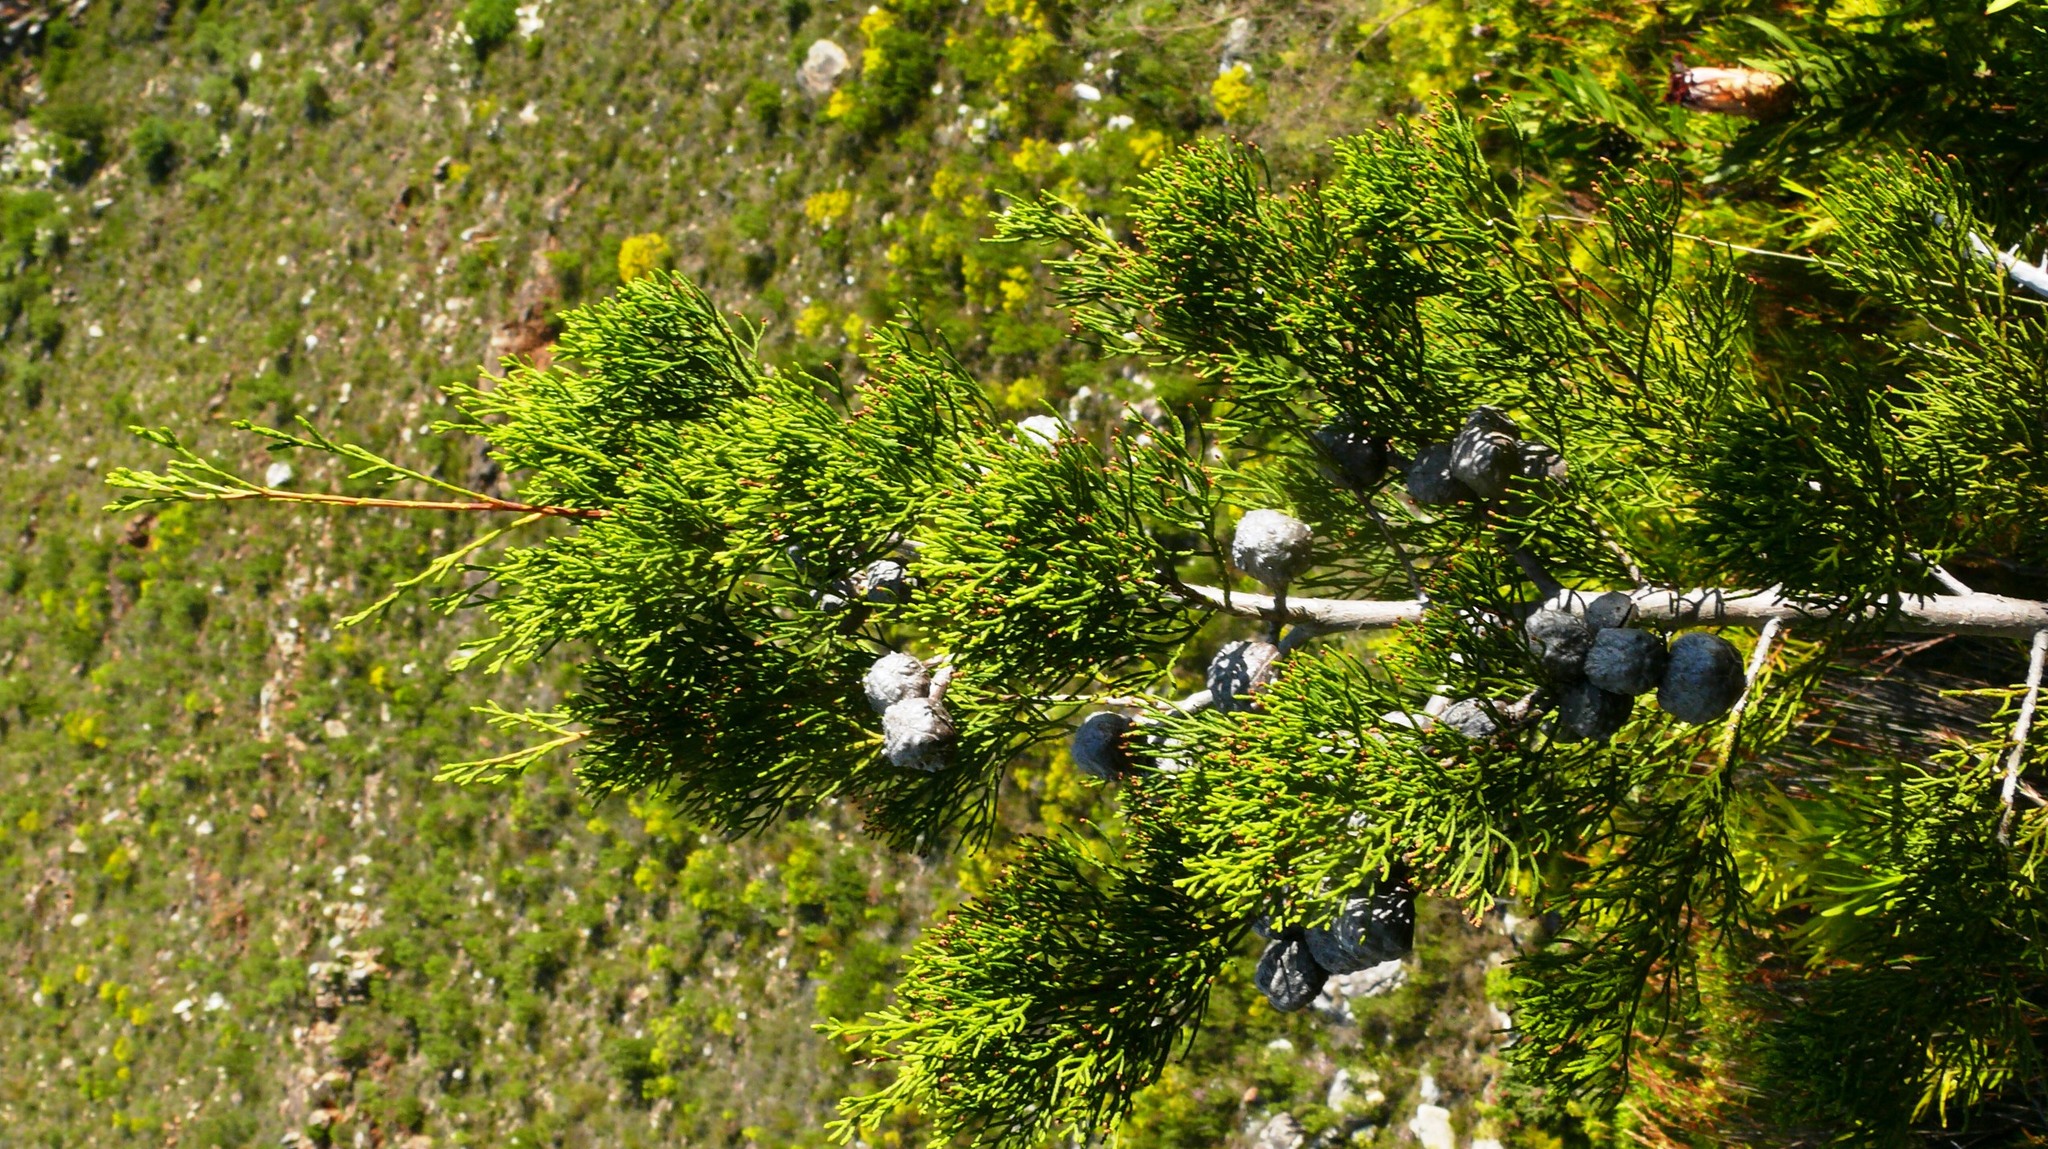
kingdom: Plantae
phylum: Tracheophyta
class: Pinopsida
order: Pinales
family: Cupressaceae
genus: Widdringtonia
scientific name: Widdringtonia nodiflora
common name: Cape cypress
